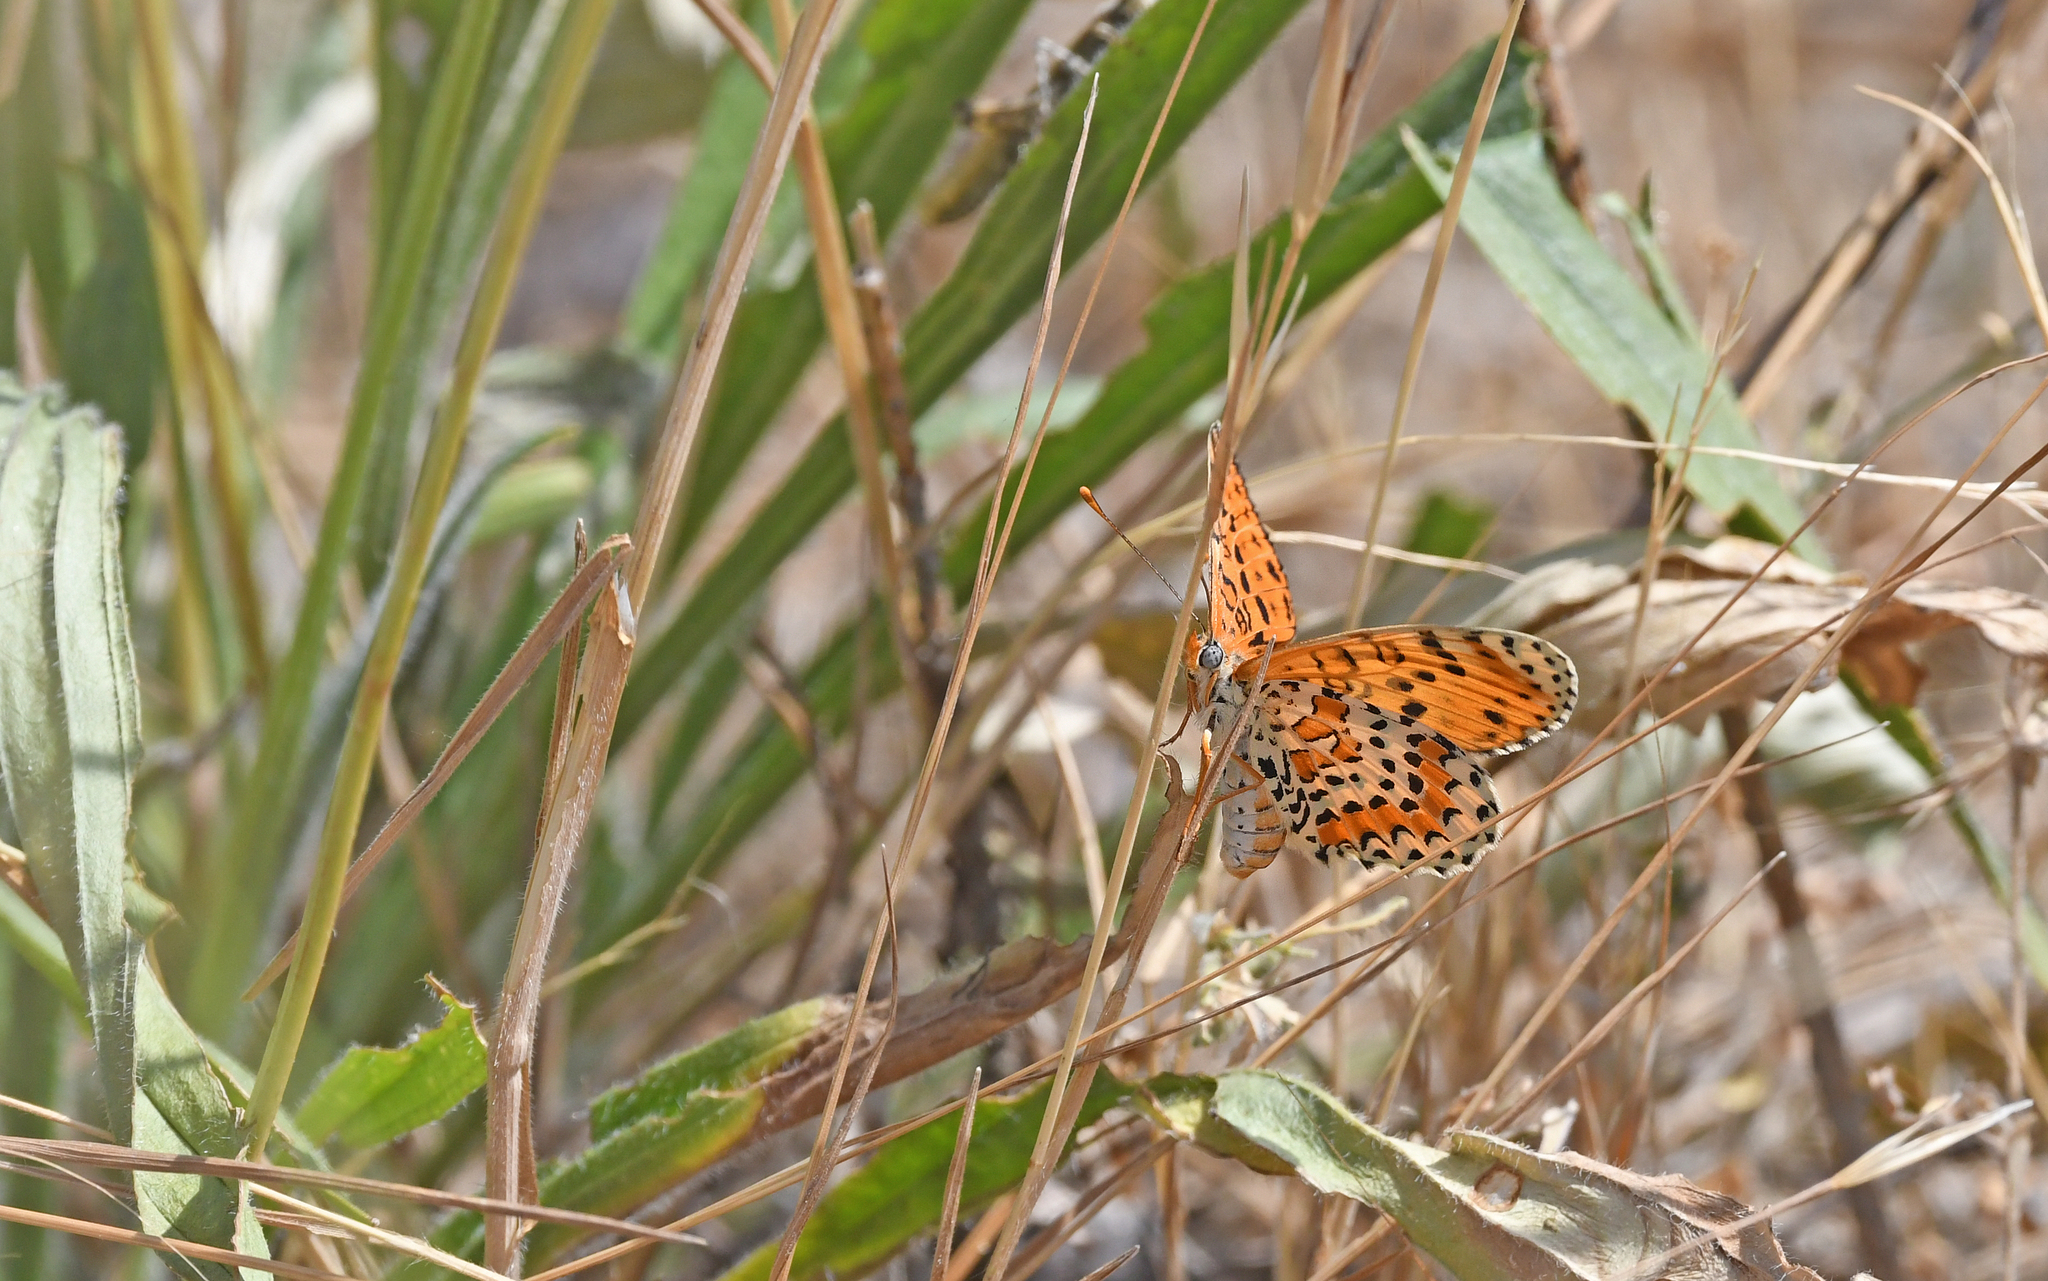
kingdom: Animalia
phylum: Arthropoda
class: Insecta
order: Lepidoptera
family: Nymphalidae
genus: Melitaea
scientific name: Melitaea didyma
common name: Spotted fritillary
